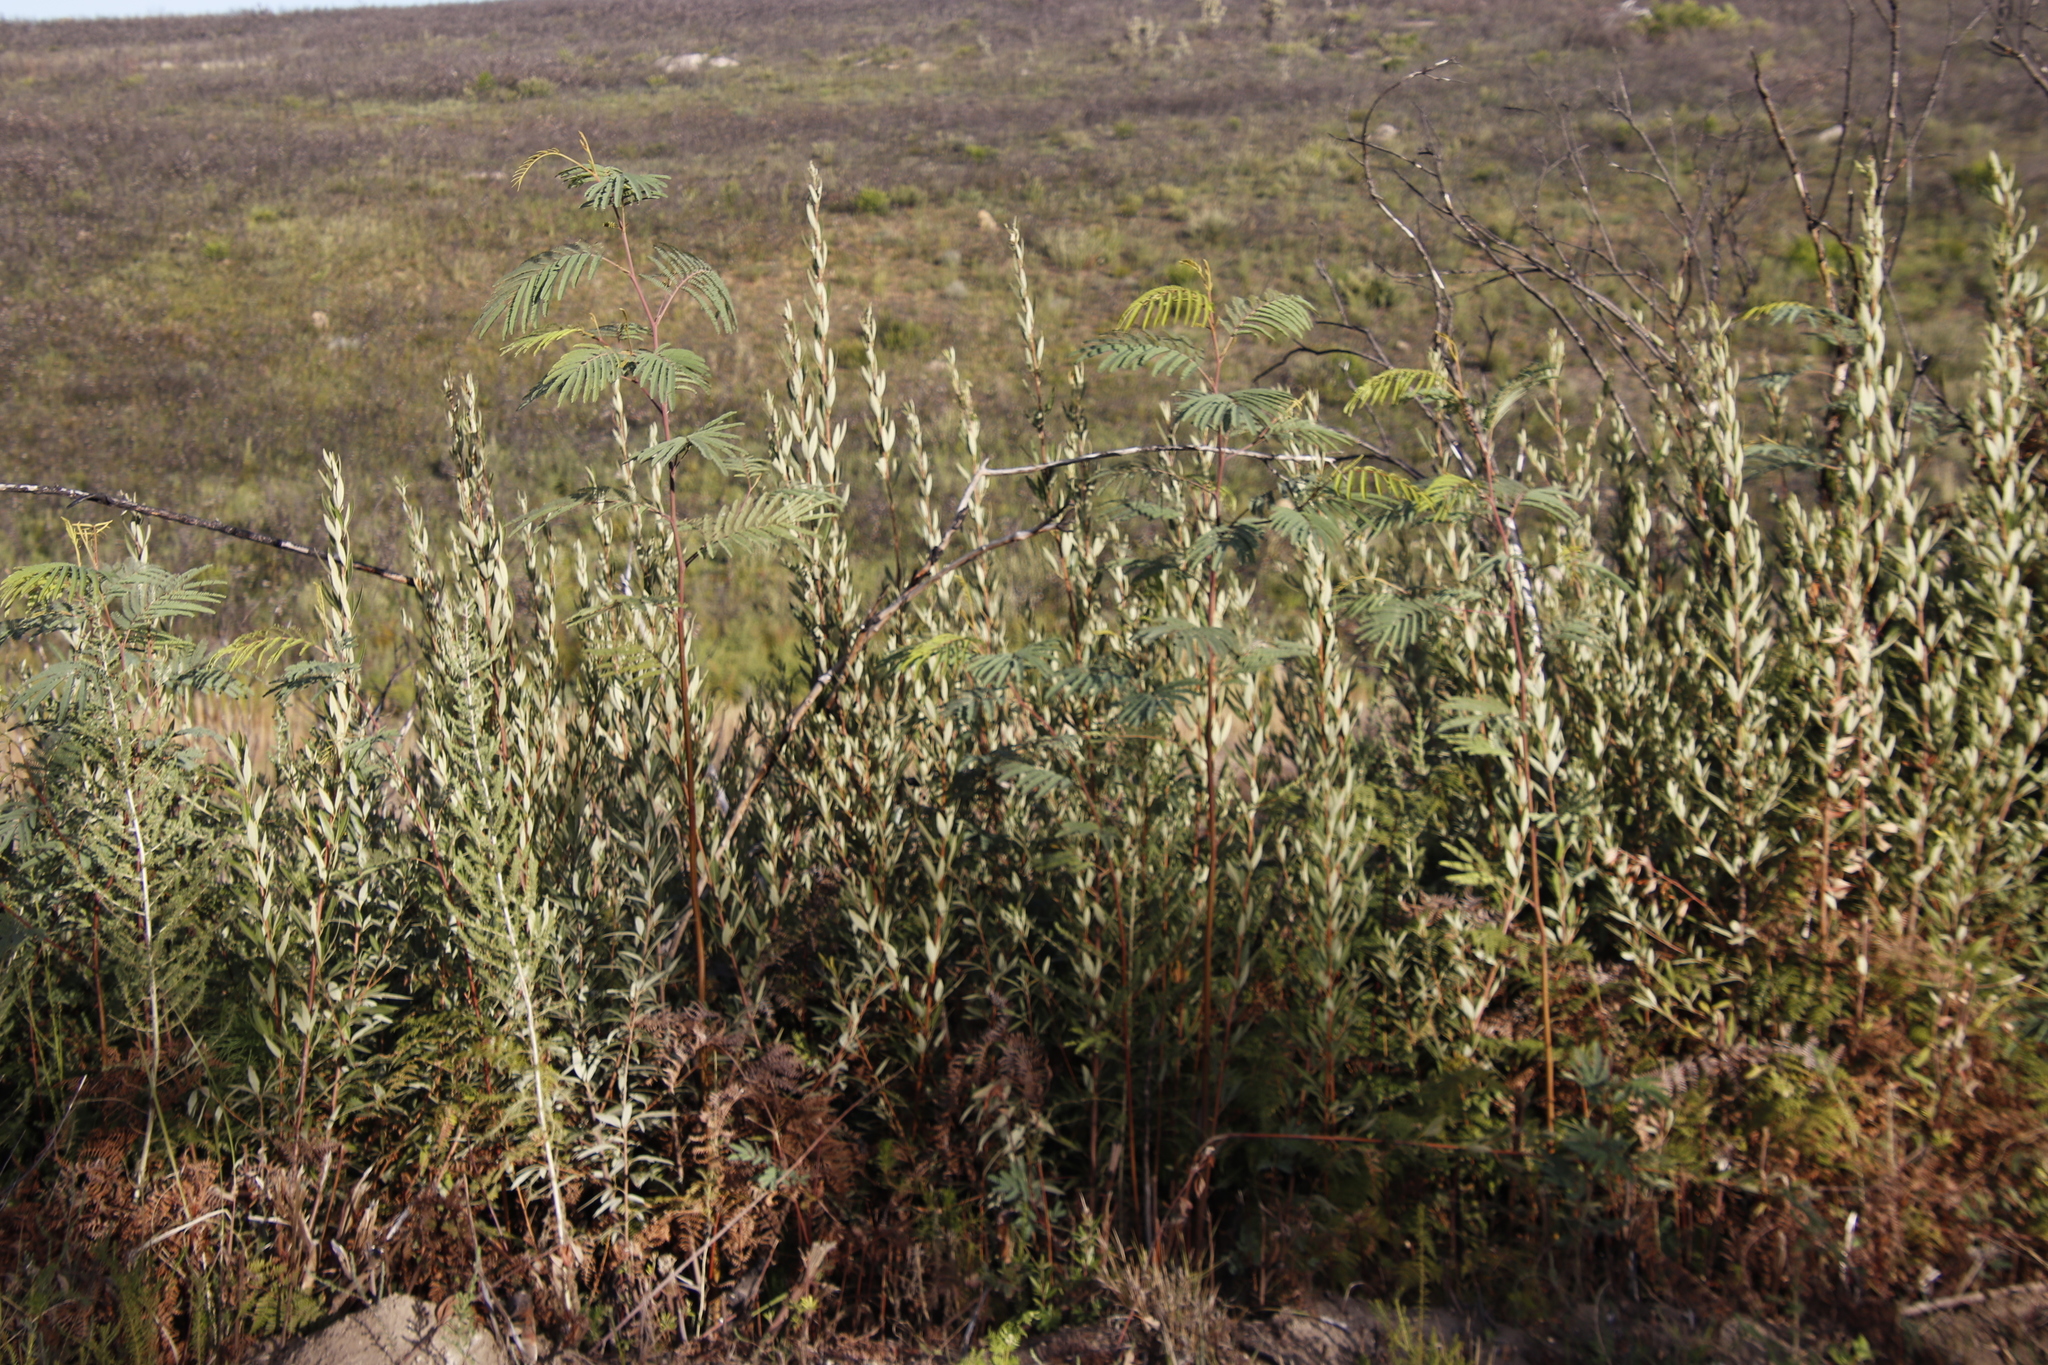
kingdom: Plantae
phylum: Tracheophyta
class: Magnoliopsida
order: Sapindales
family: Anacardiaceae
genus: Searsia
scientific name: Searsia angustifolia
